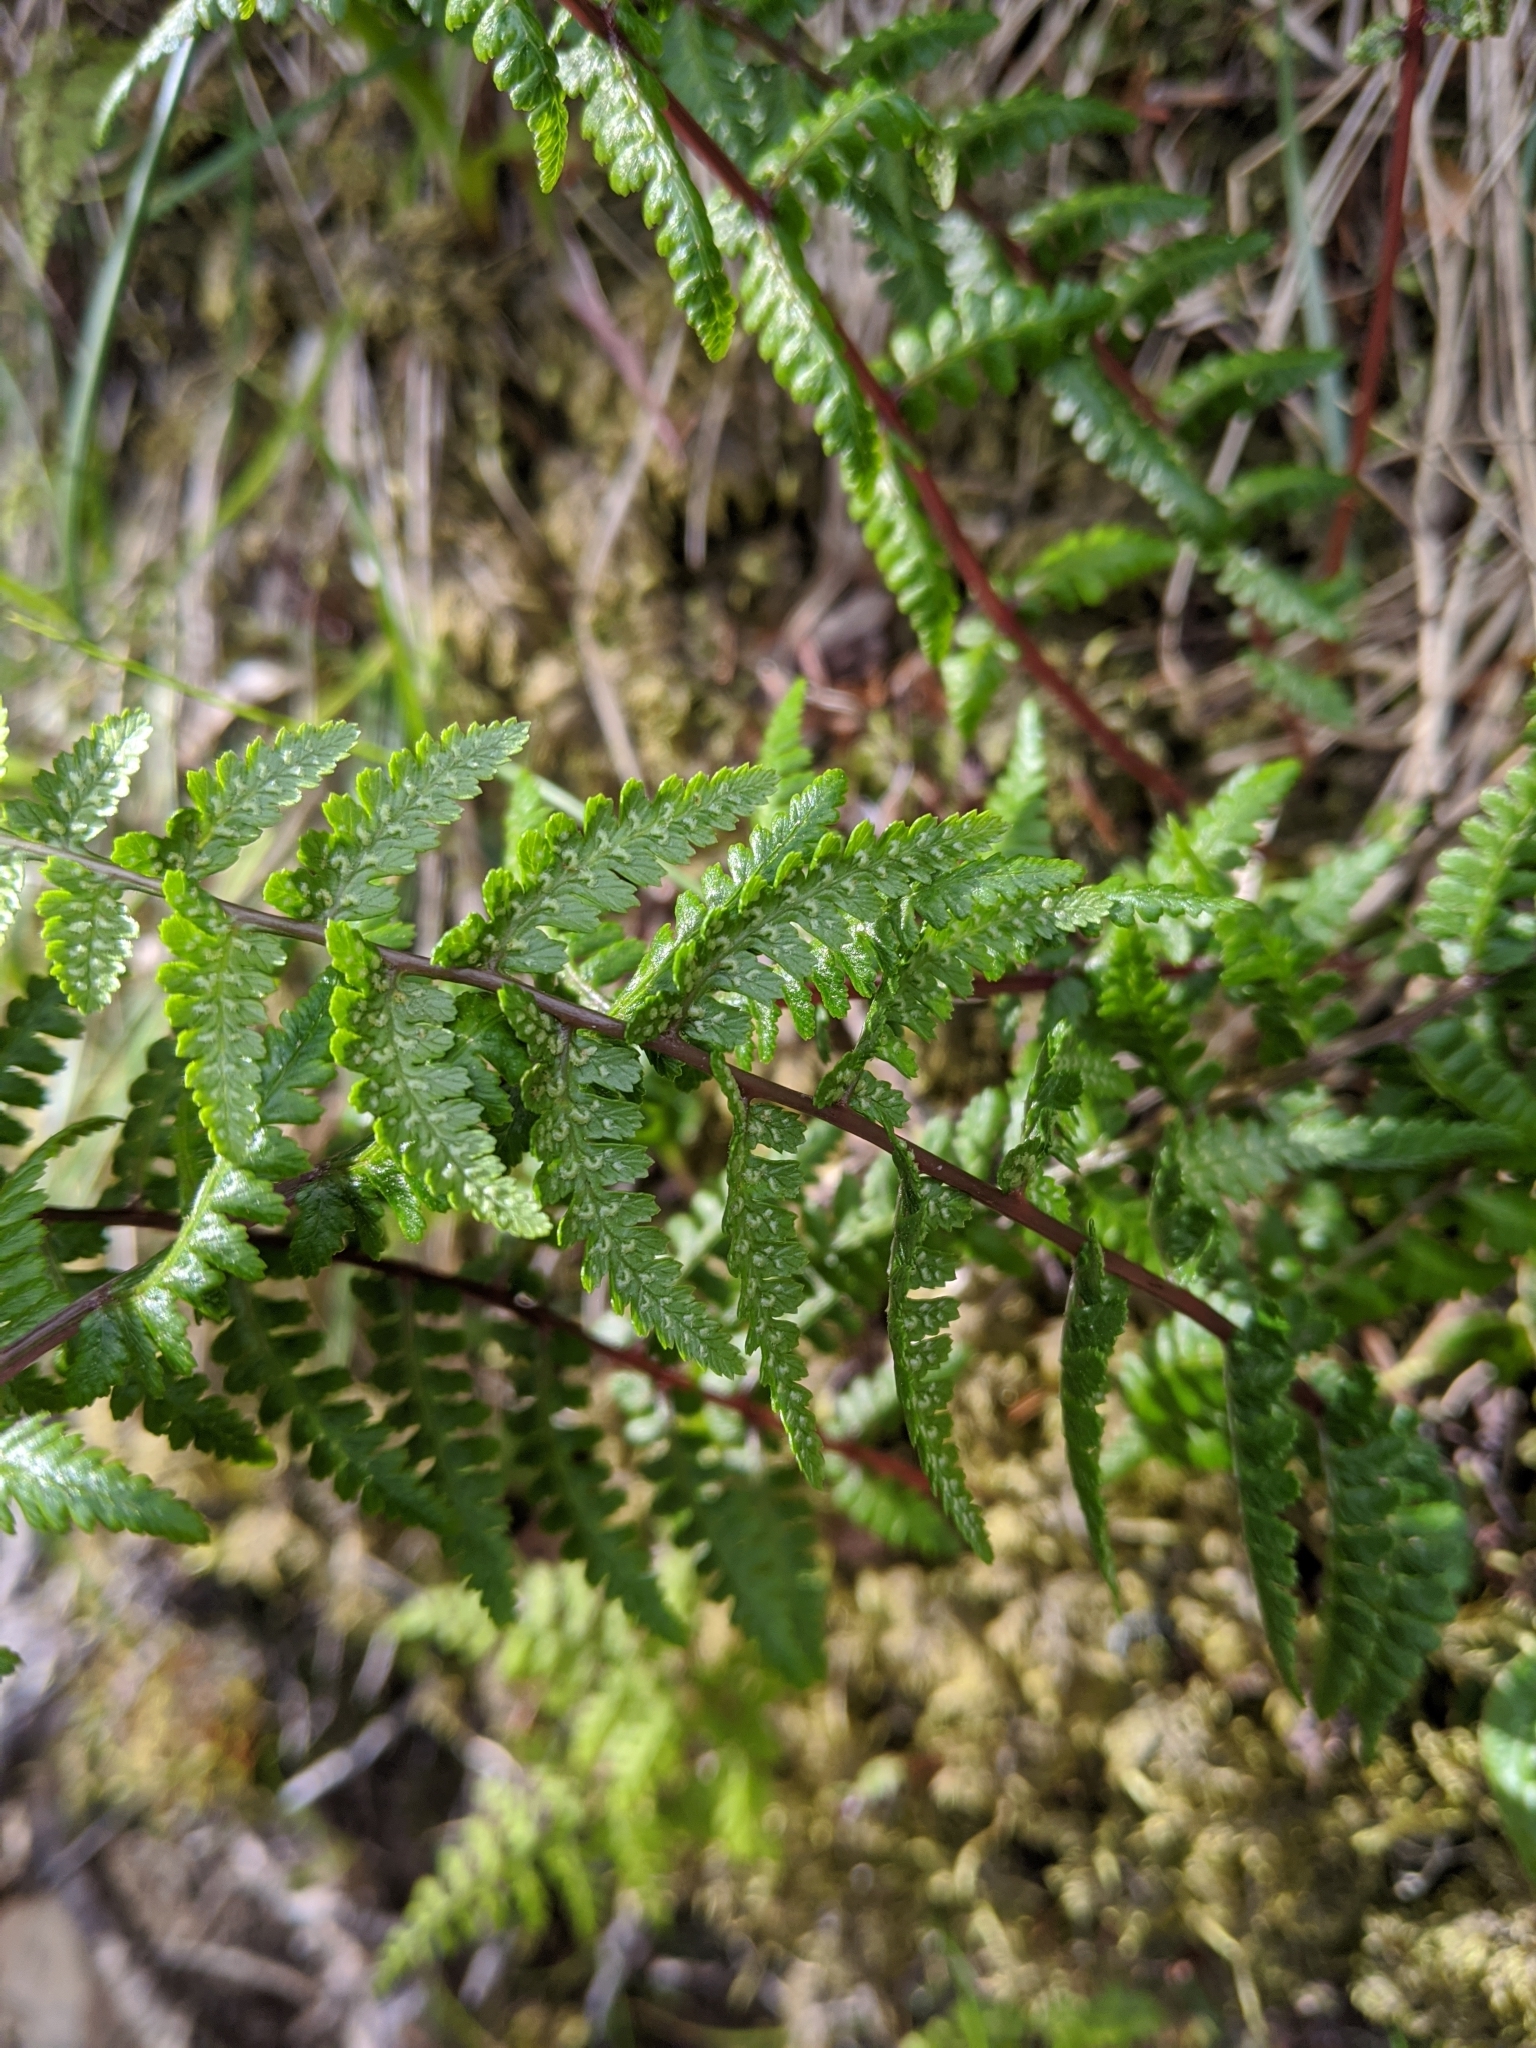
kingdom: Plantae
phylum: Tracheophyta
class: Polypodiopsida
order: Polypodiales
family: Athyriaceae
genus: Athyrium
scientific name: Athyrium oppositipennum
